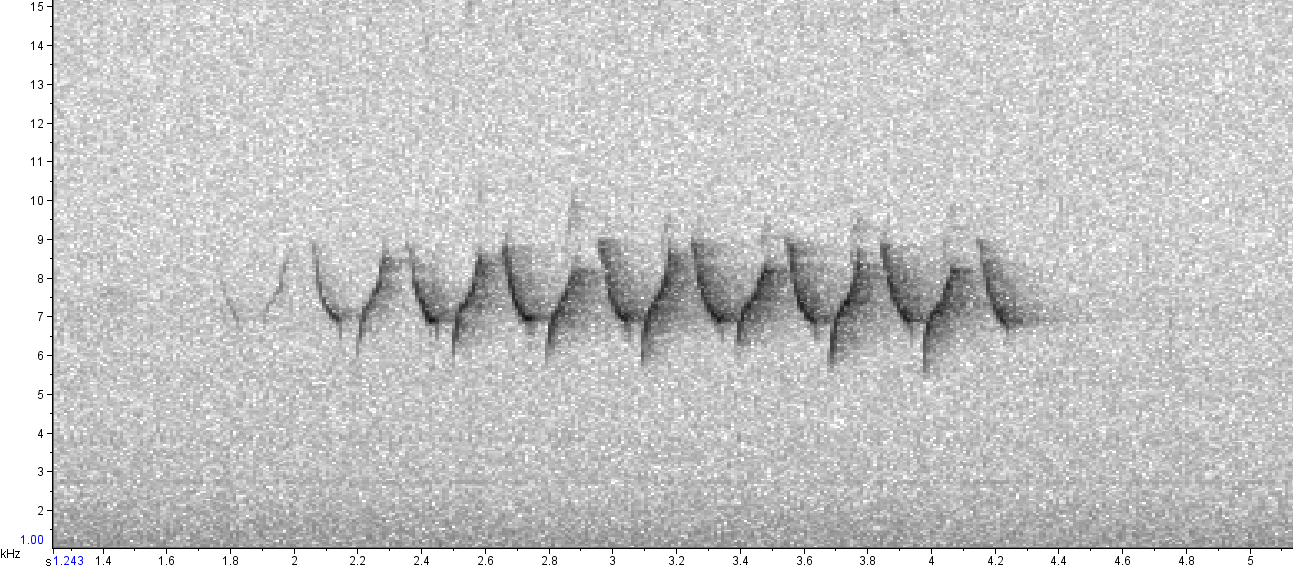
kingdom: Animalia
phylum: Chordata
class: Aves
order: Passeriformes
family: Parulidae
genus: Mniotilta
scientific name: Mniotilta varia
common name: Black-and-white warbler
